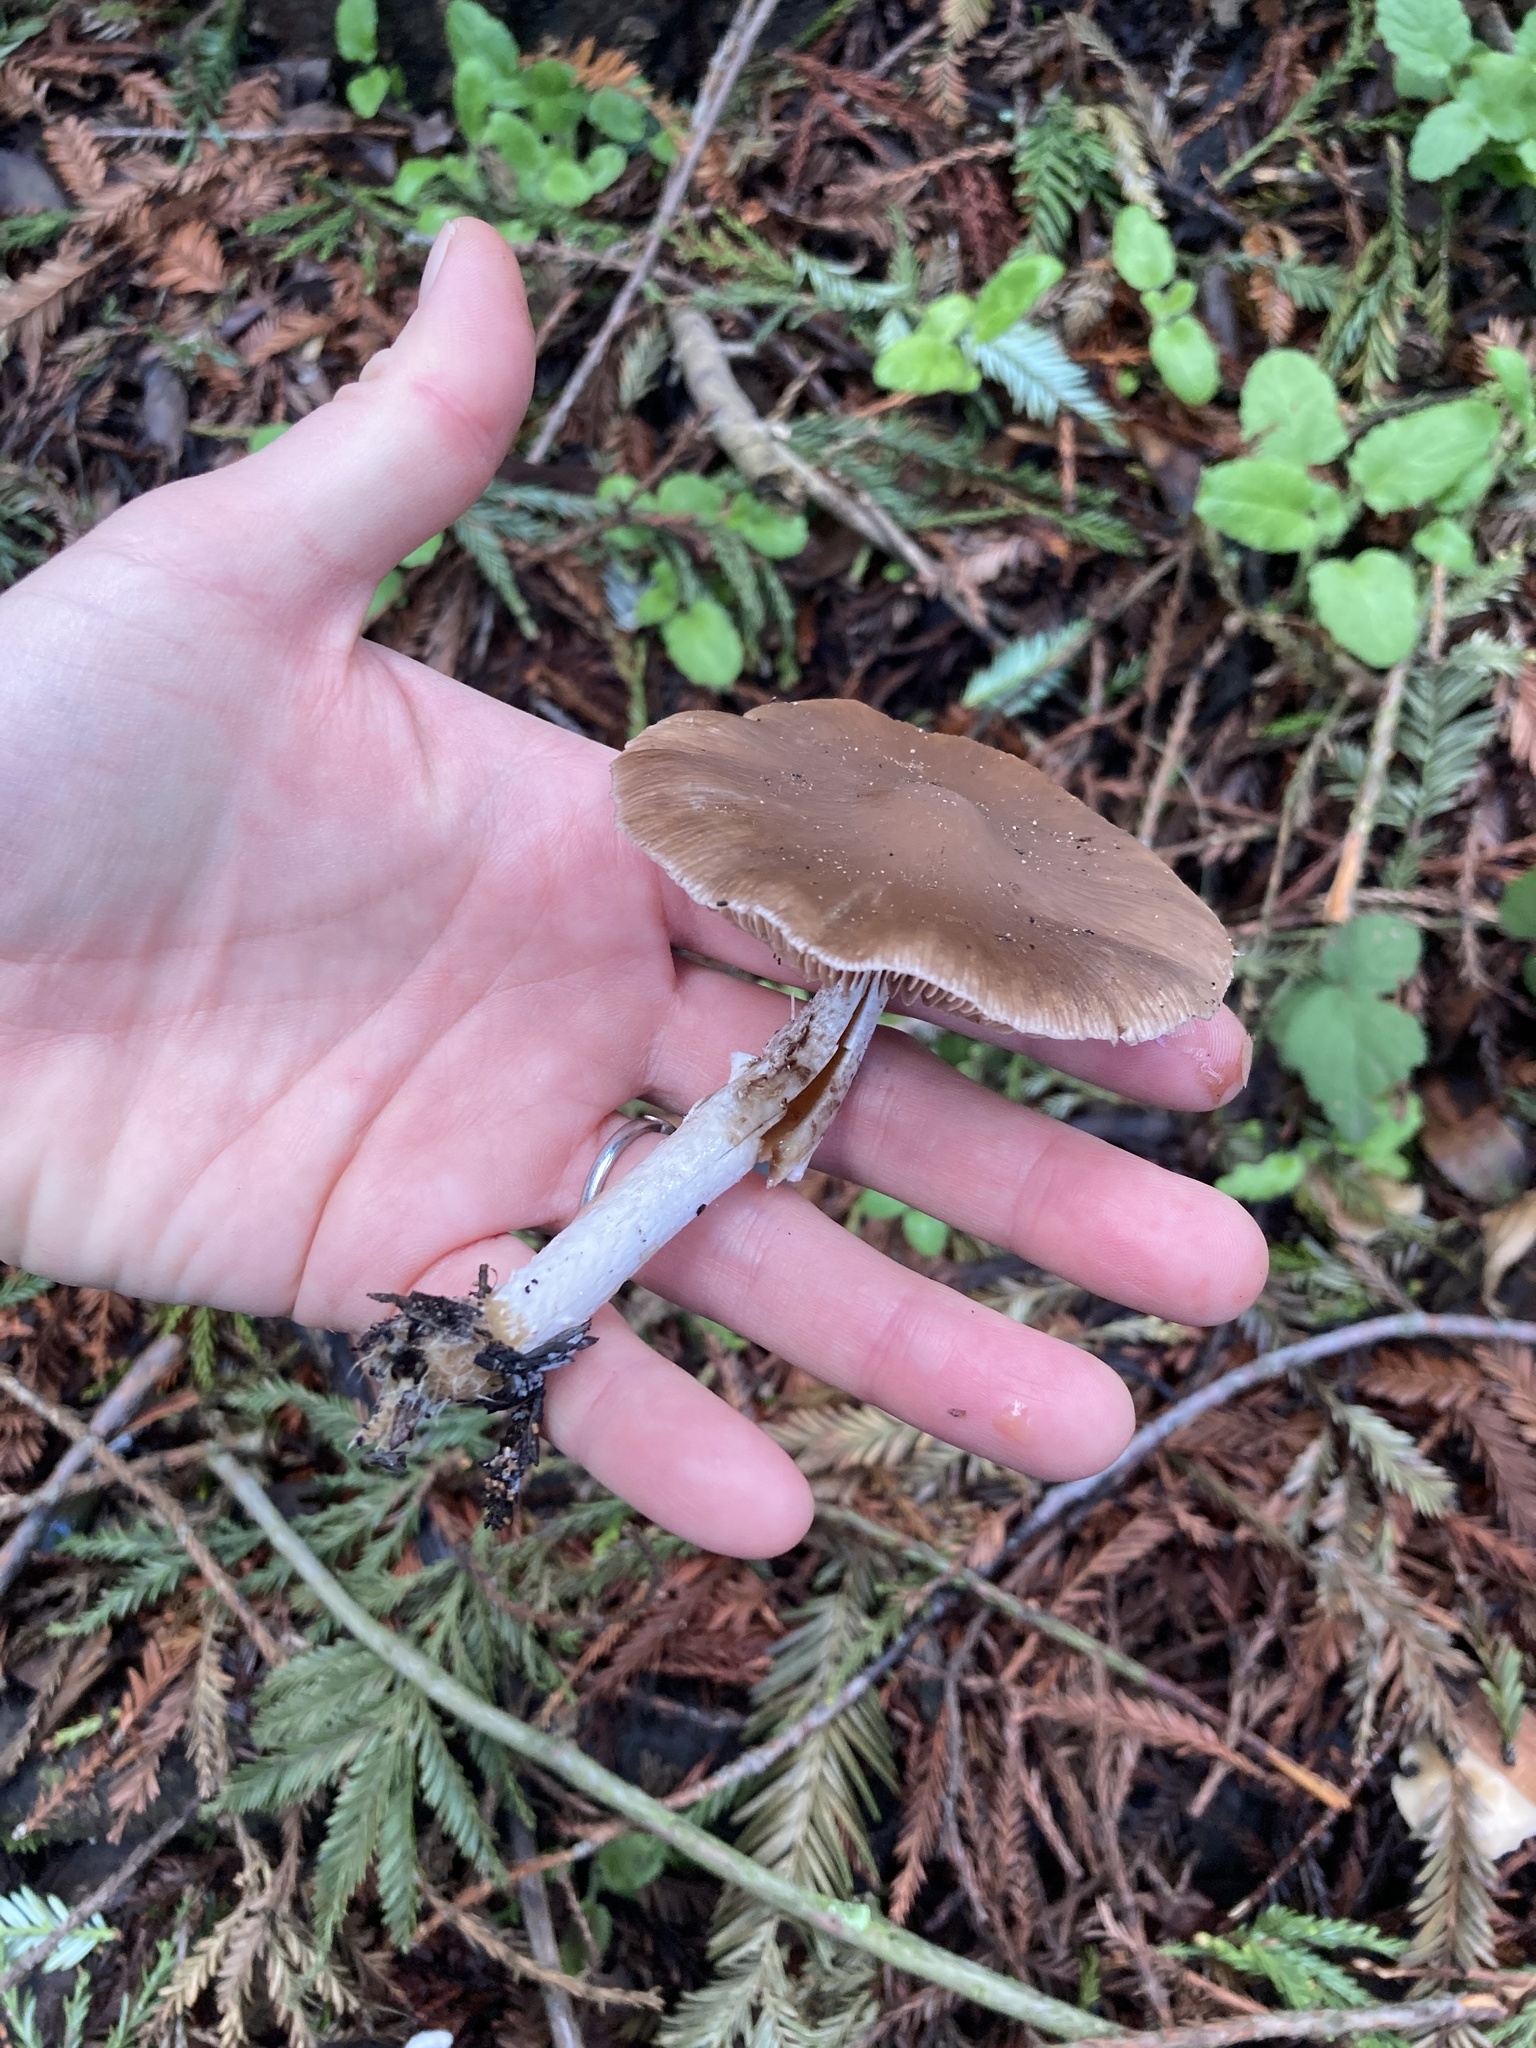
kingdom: Fungi
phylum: Basidiomycota
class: Agaricomycetes
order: Agaricales
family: Psathyrellaceae
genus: Psathyrella
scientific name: Psathyrella longistriata
